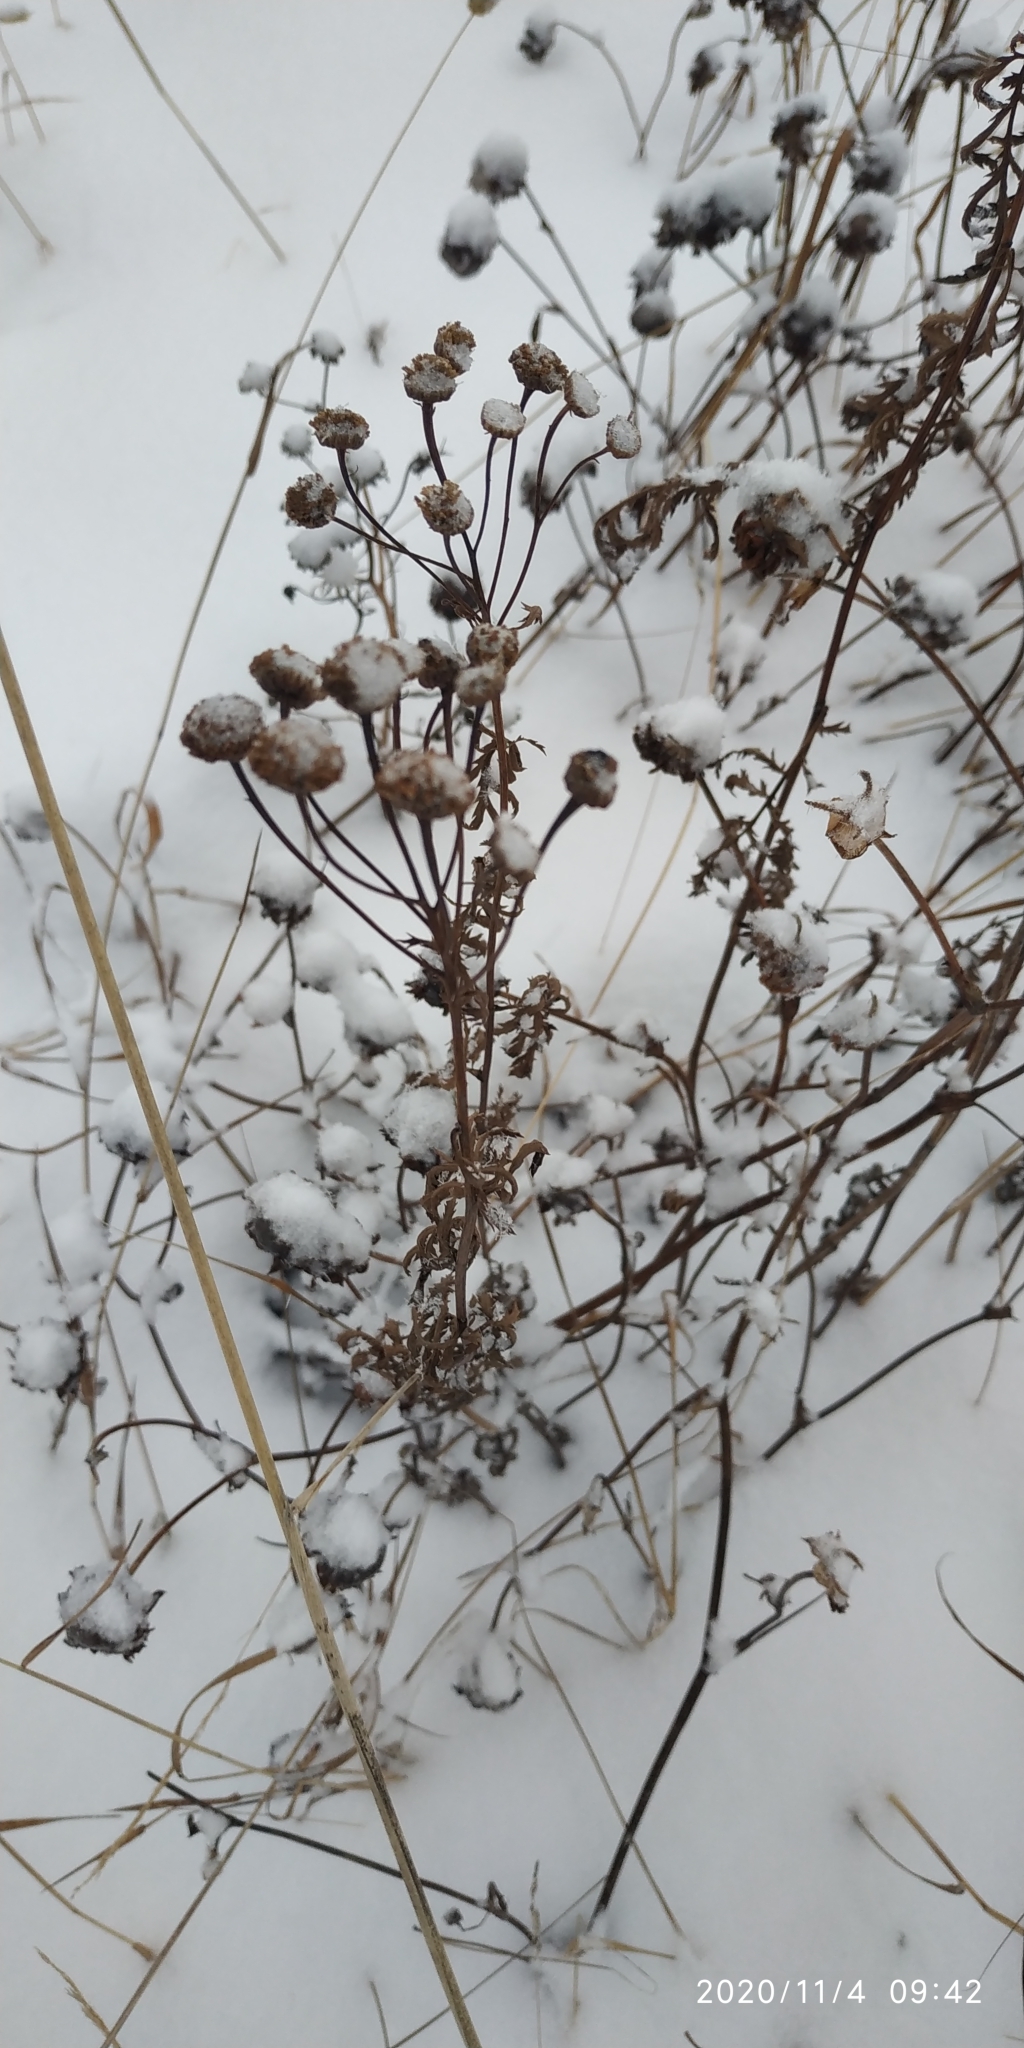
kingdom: Plantae
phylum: Tracheophyta
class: Magnoliopsida
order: Asterales
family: Asteraceae
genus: Tanacetum
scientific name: Tanacetum vulgare
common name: Common tansy
